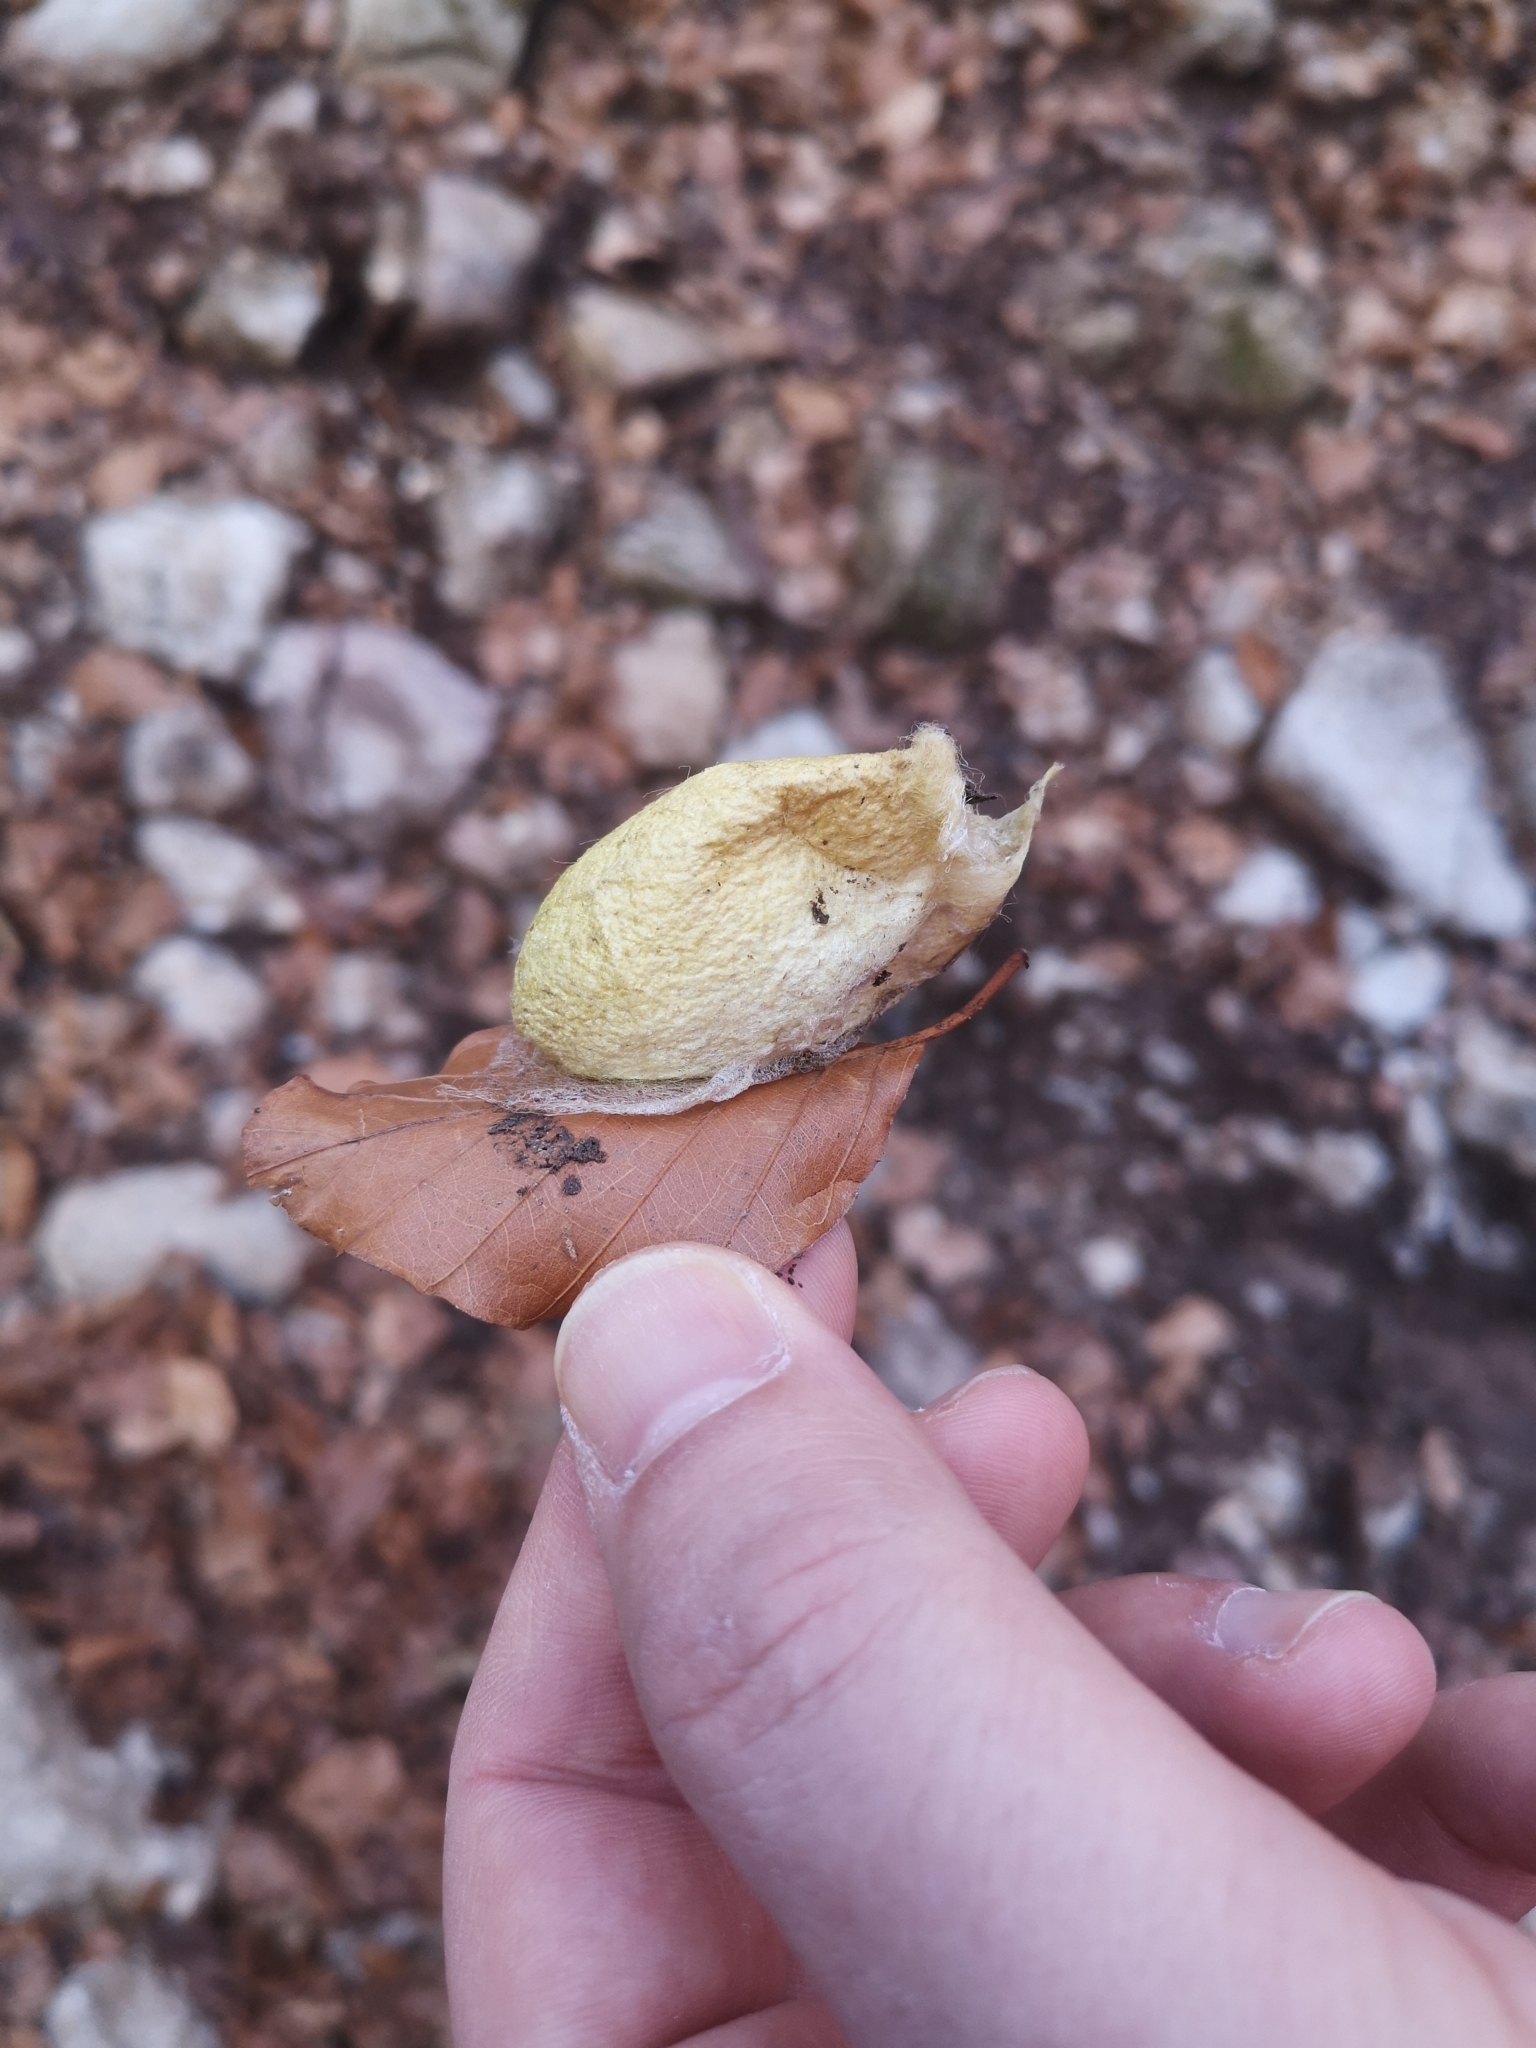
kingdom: Animalia
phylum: Arthropoda
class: Insecta
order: Lepidoptera
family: Saturniidae
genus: Antheraea
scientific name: Antheraea yamamai
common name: Japanese oak silk moth
